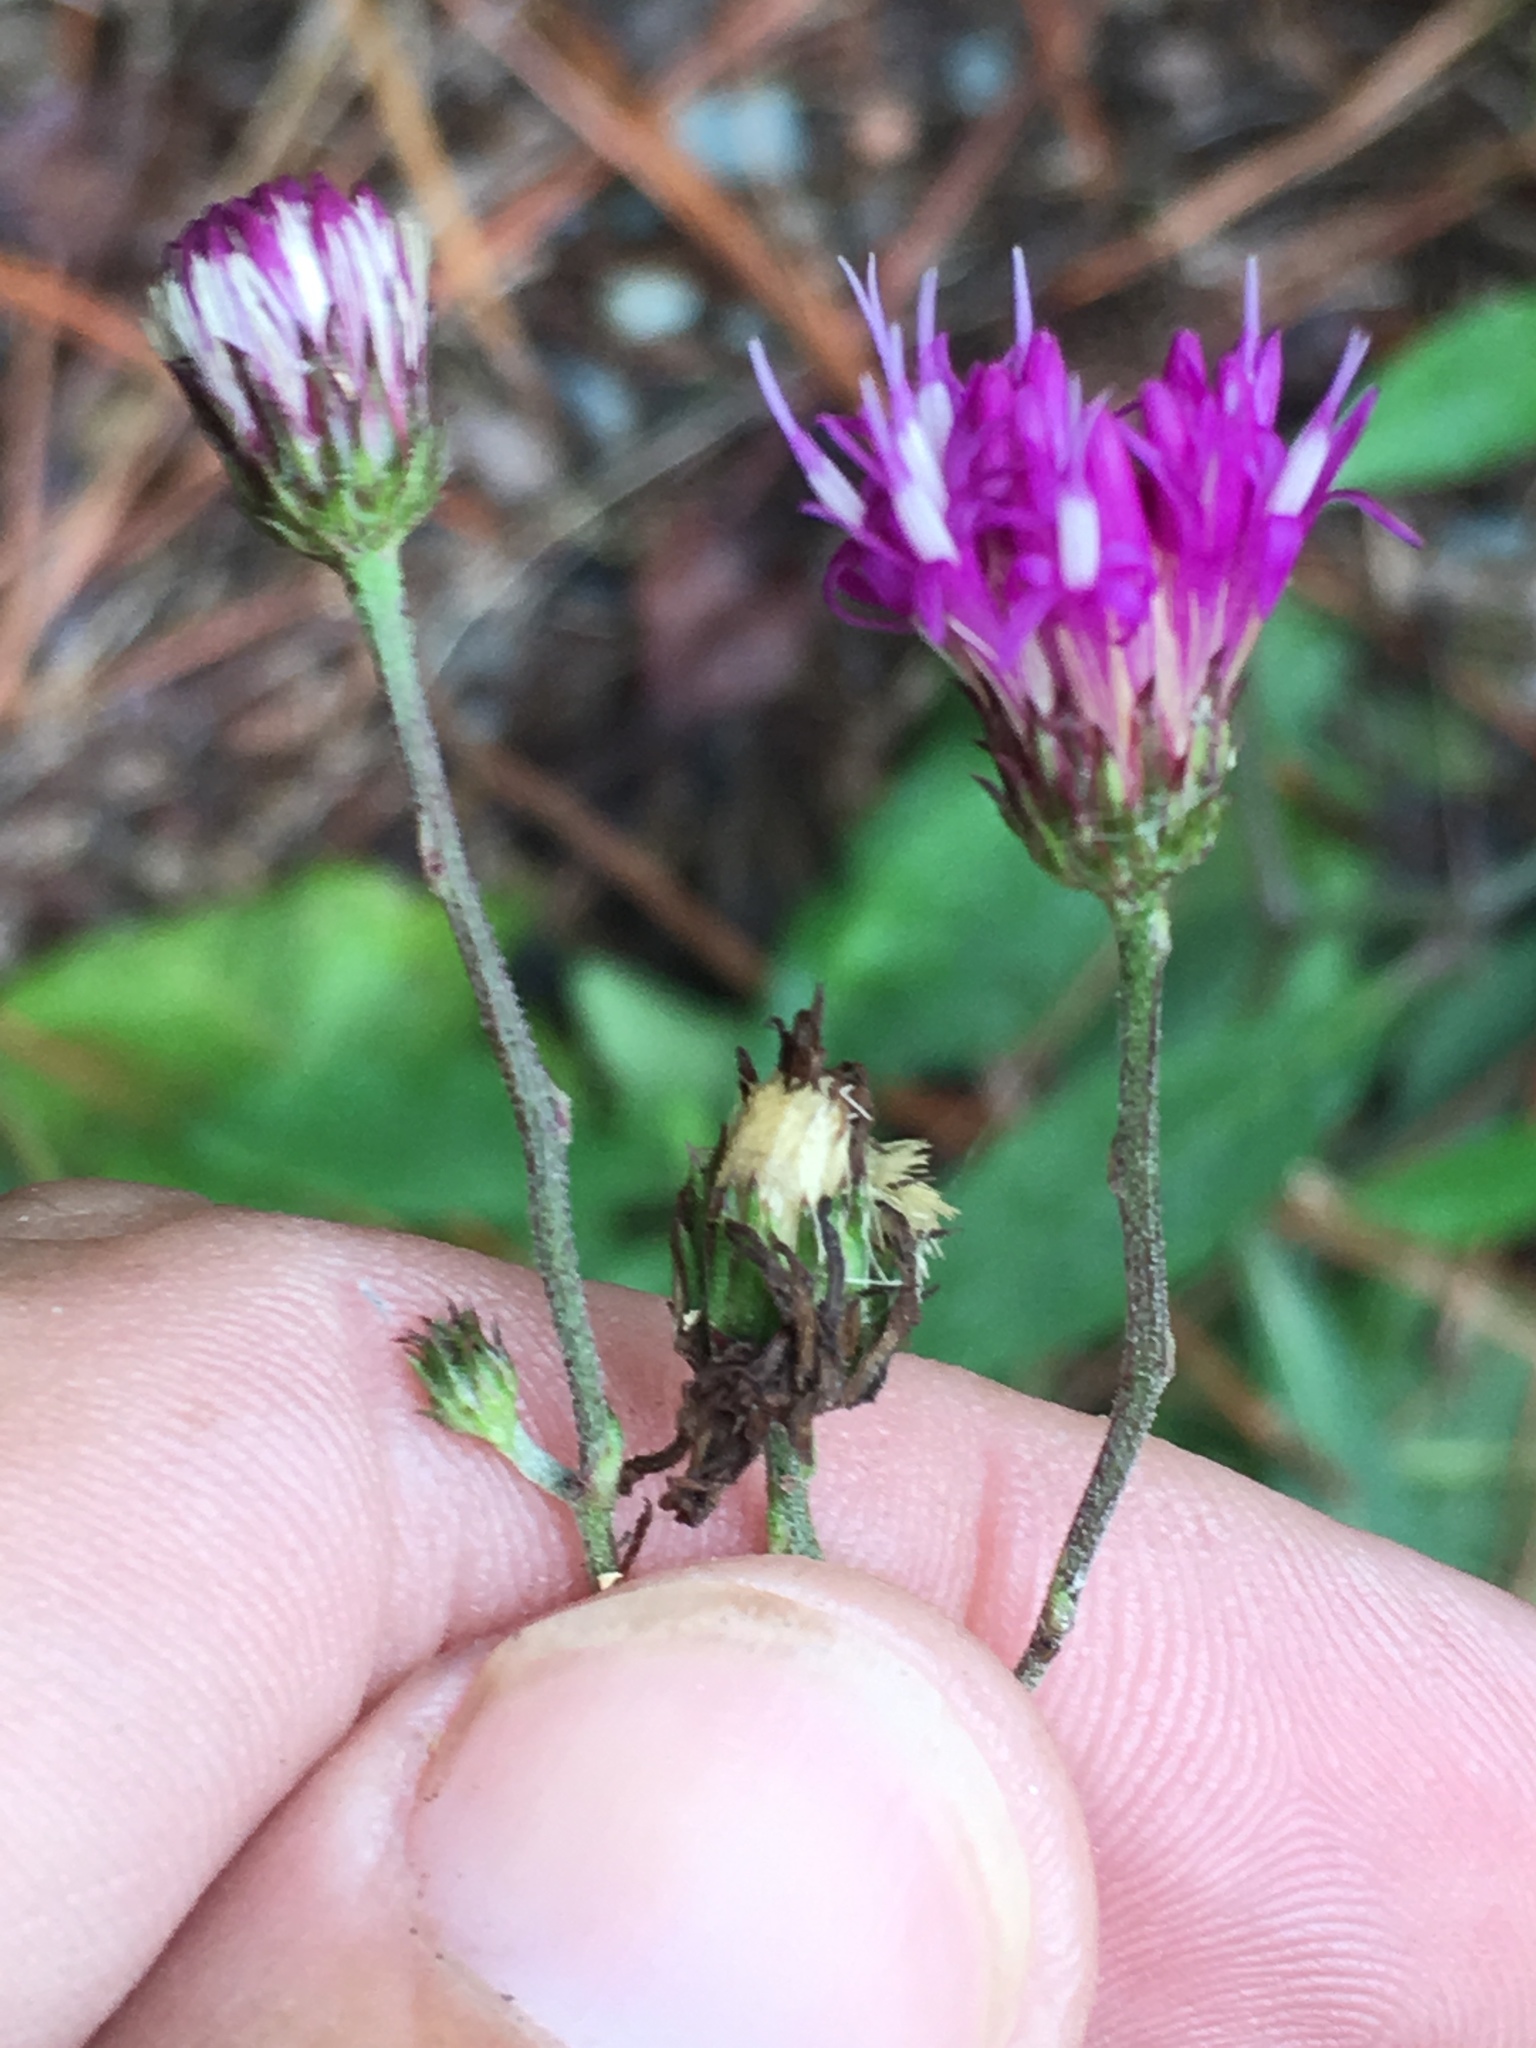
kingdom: Plantae
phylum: Tracheophyta
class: Magnoliopsida
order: Asterales
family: Asteraceae
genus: Vernonia
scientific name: Vernonia acaulis
